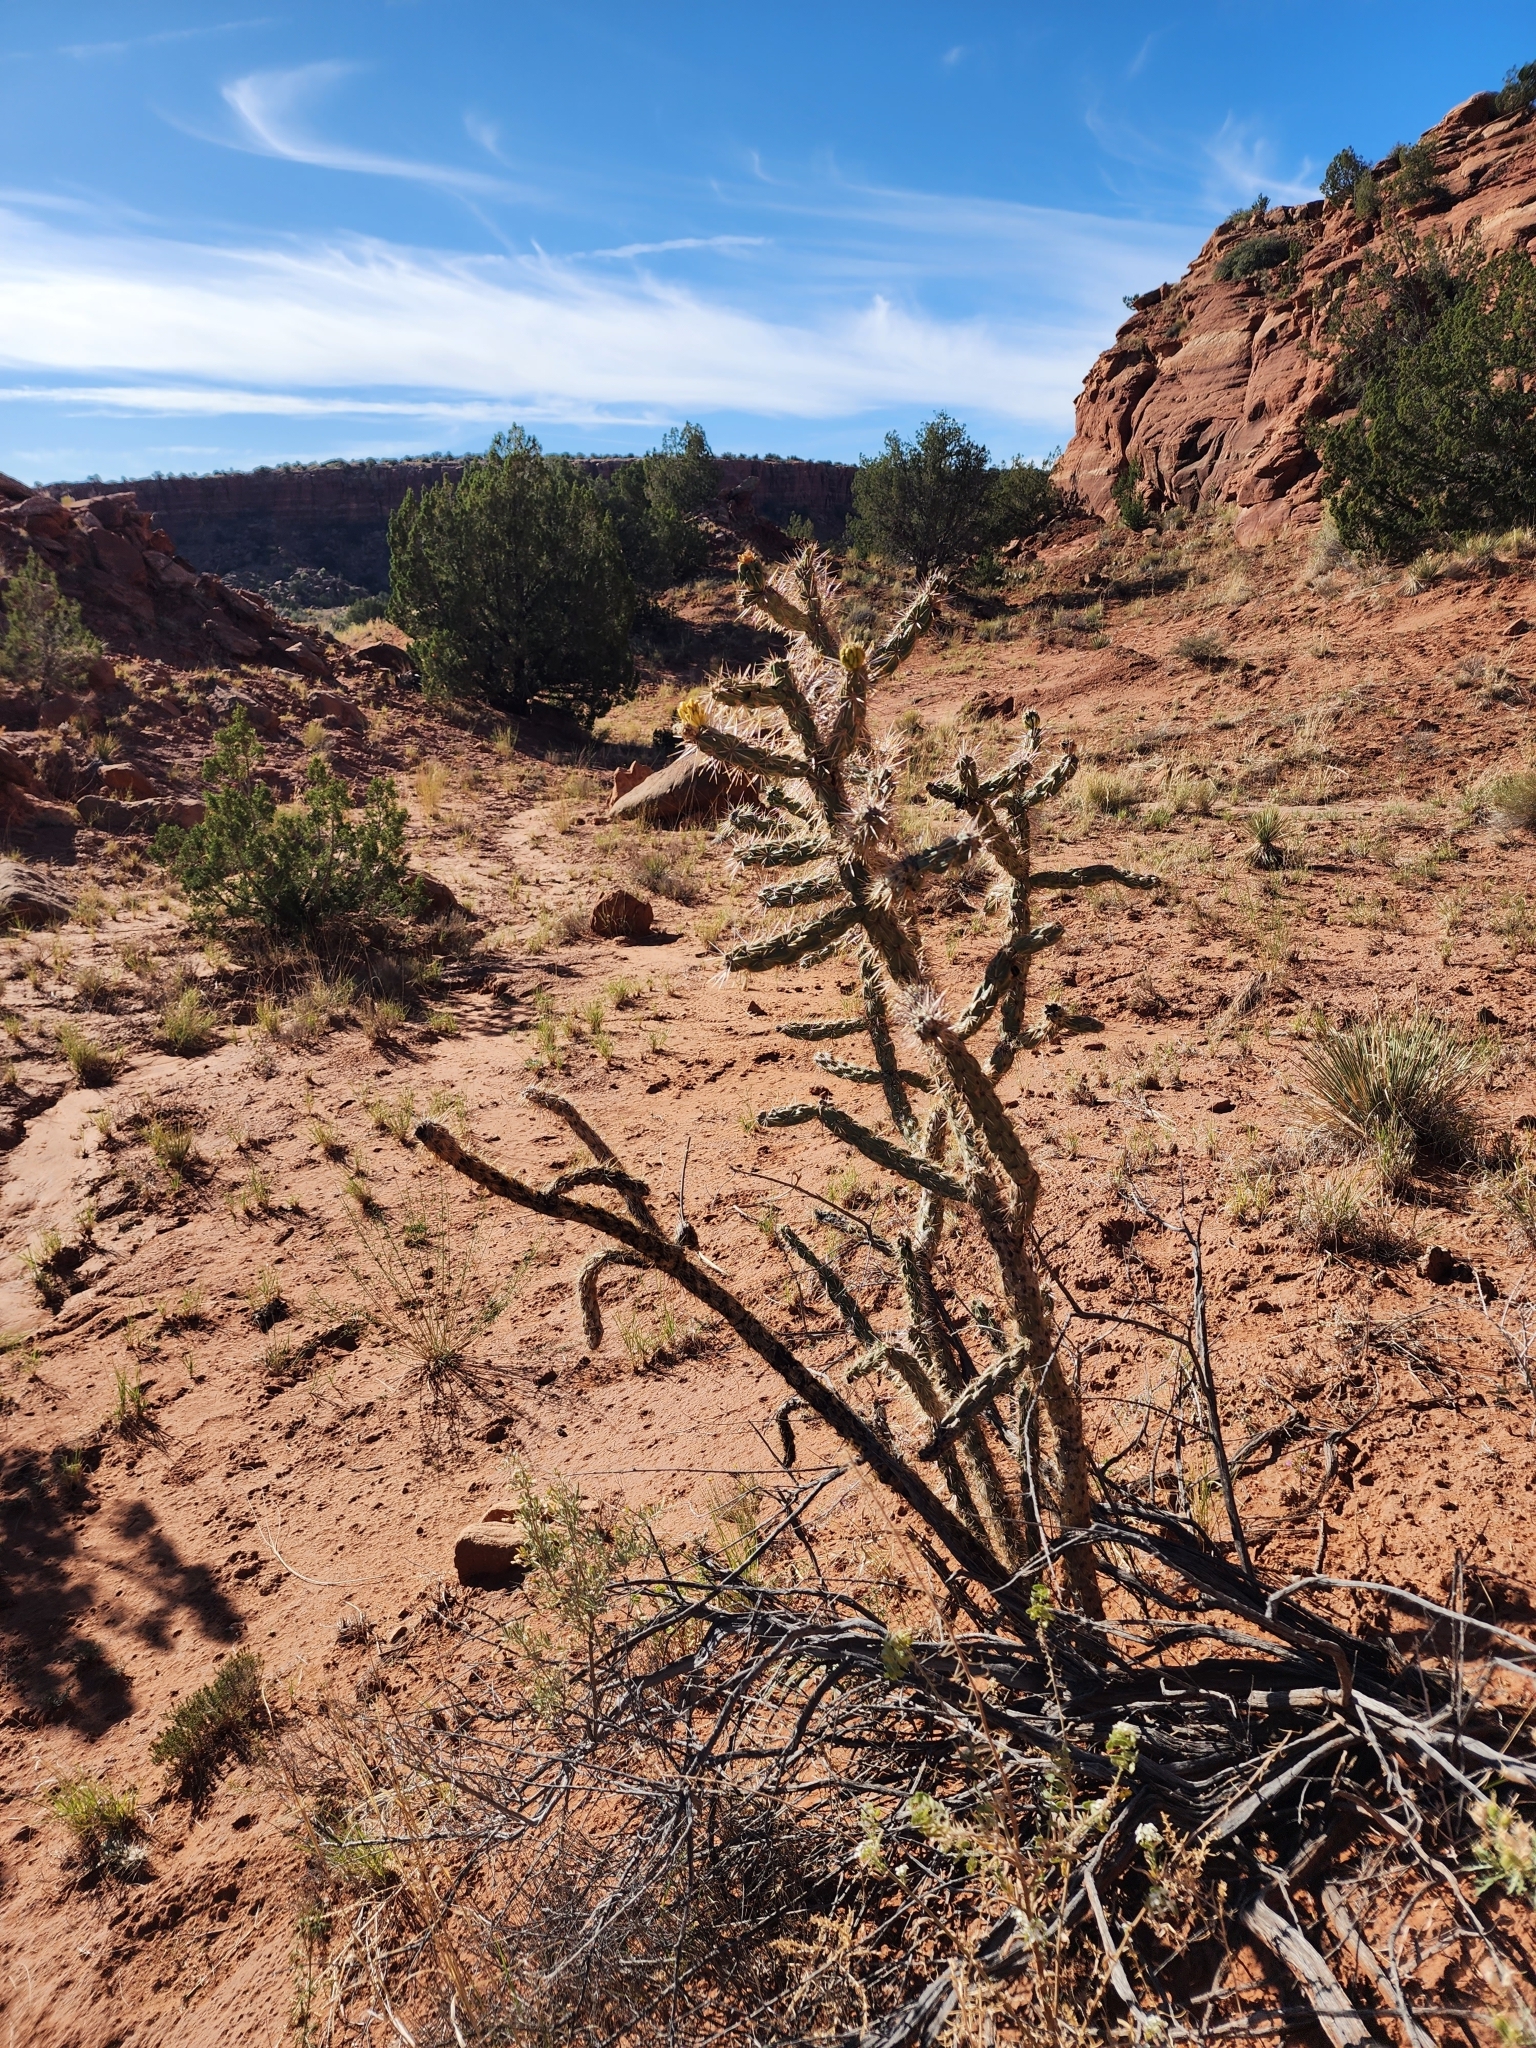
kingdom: Plantae
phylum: Tracheophyta
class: Magnoliopsida
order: Caryophyllales
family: Cactaceae
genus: Cylindropuntia
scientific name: Cylindropuntia imbricata
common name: Candelabrum cactus
